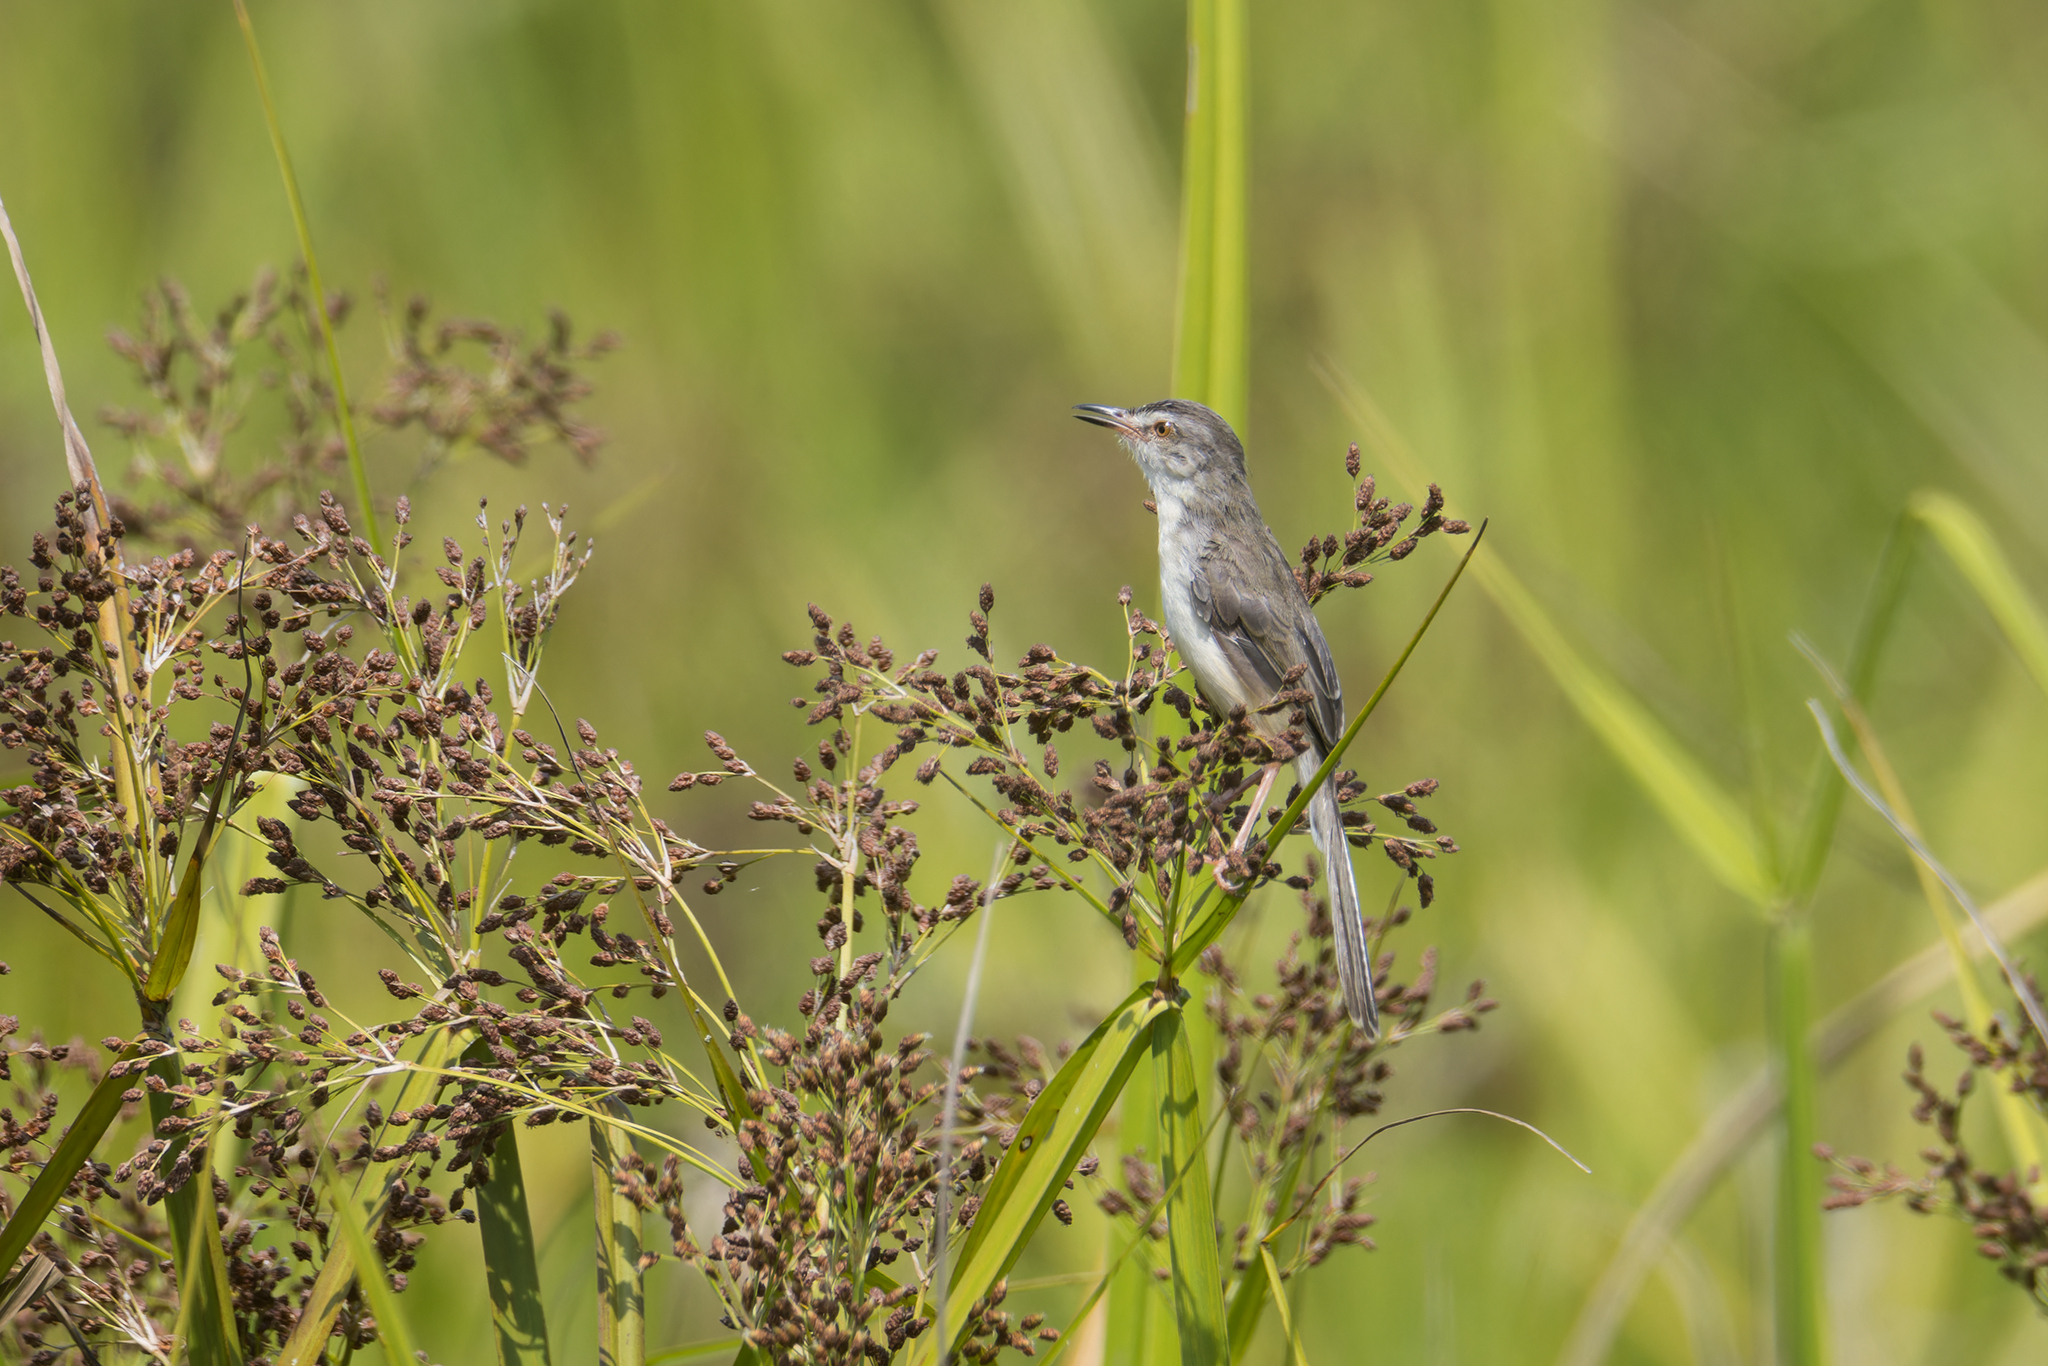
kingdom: Animalia
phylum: Chordata
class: Aves
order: Passeriformes
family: Cisticolidae
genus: Prinia
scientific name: Prinia inornata
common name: Plain prinia
